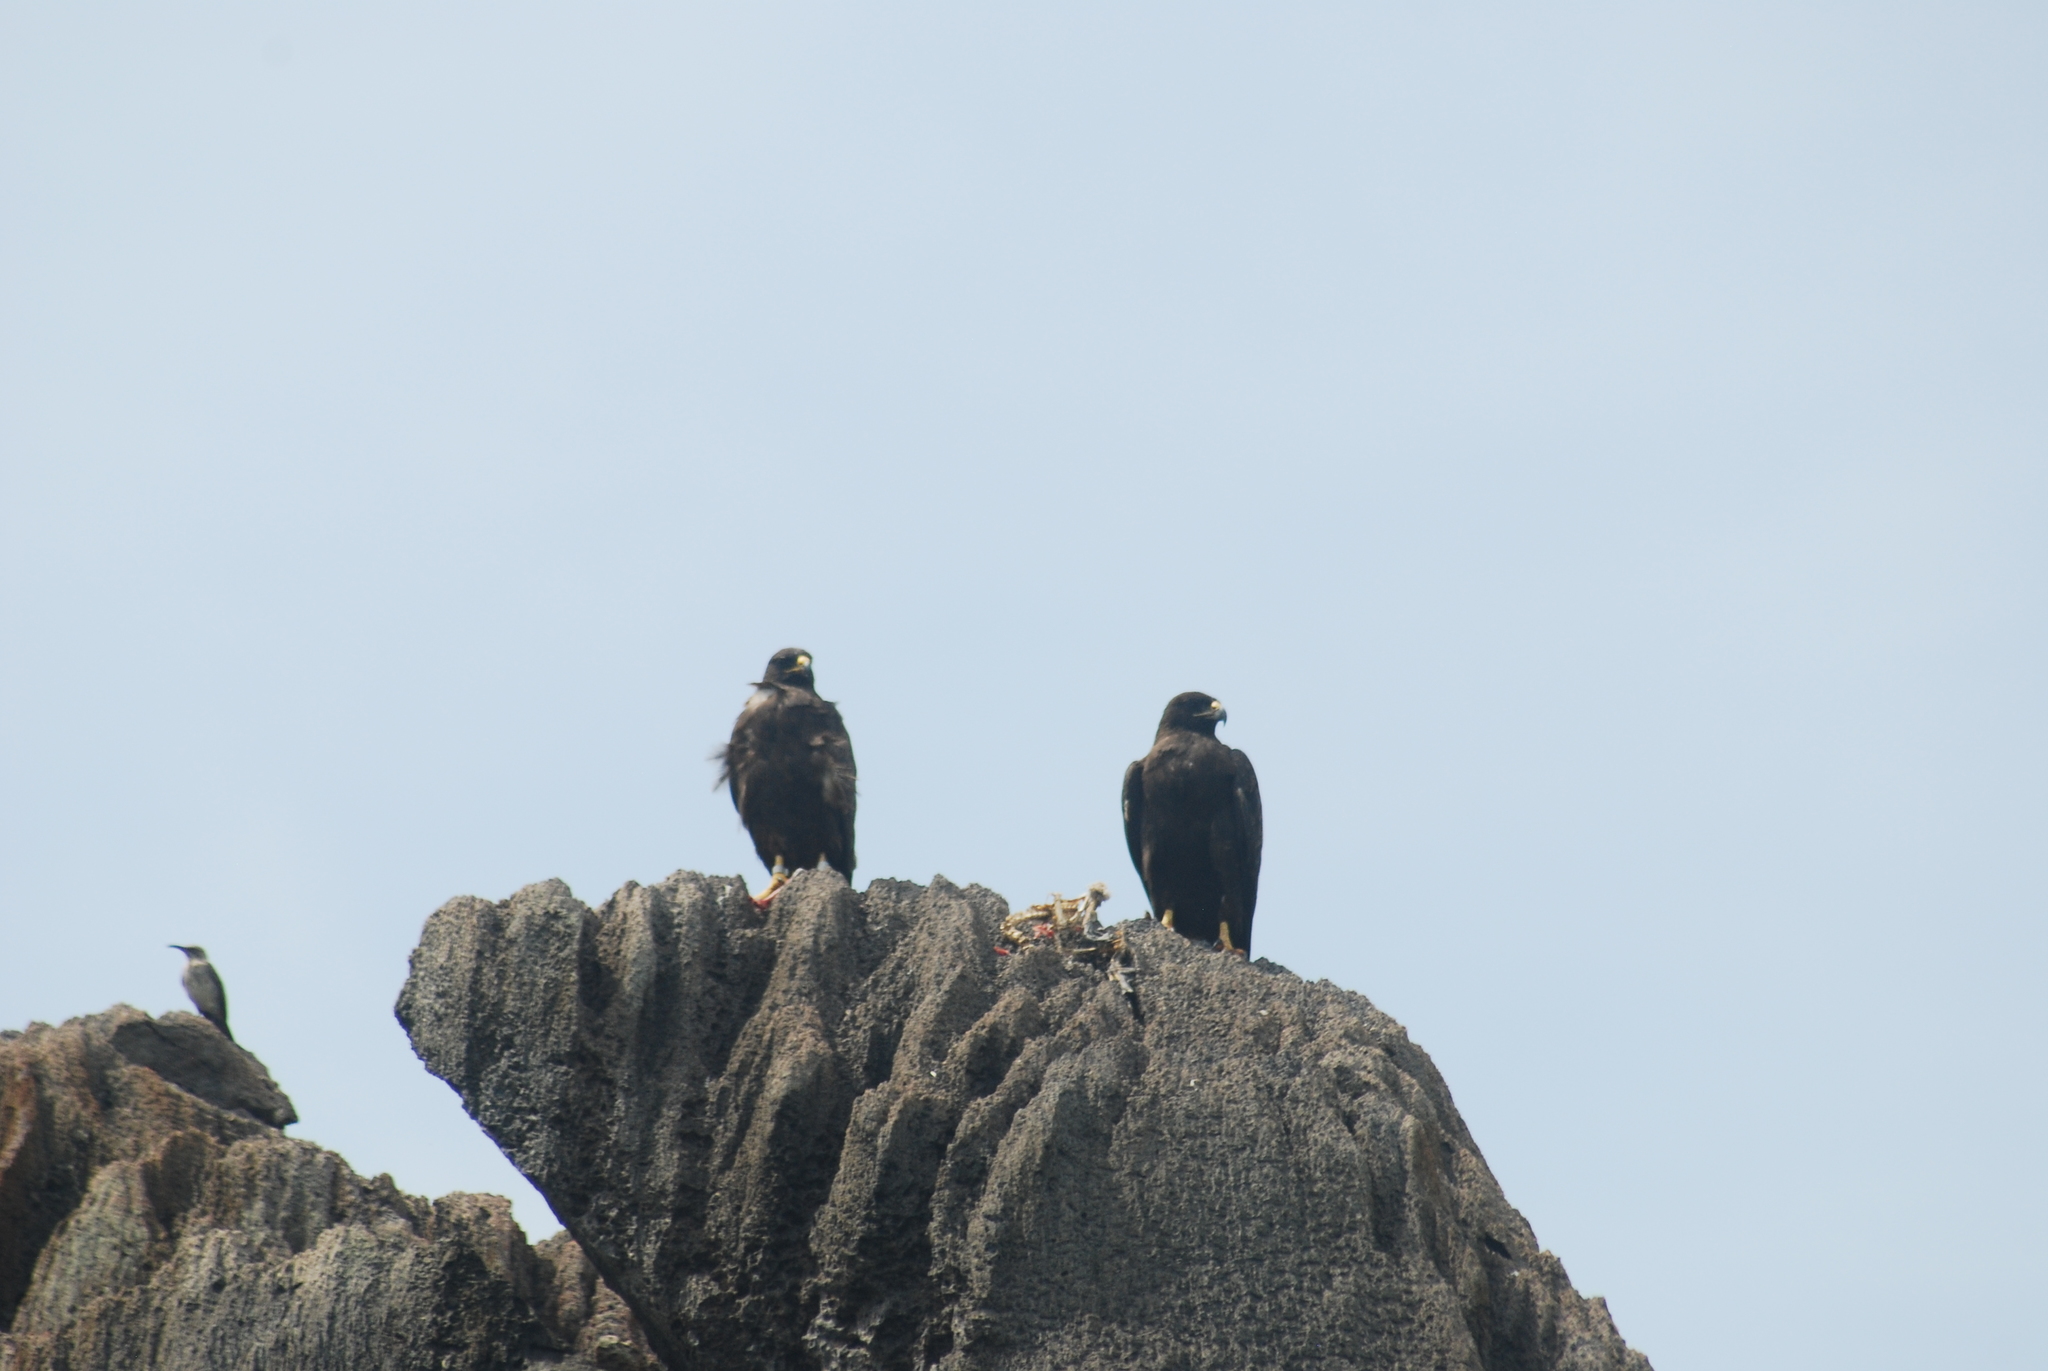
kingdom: Animalia
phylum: Chordata
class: Aves
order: Accipitriformes
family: Accipitridae
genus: Buteo
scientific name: Buteo galapagoensis
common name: Galapagos hawk
